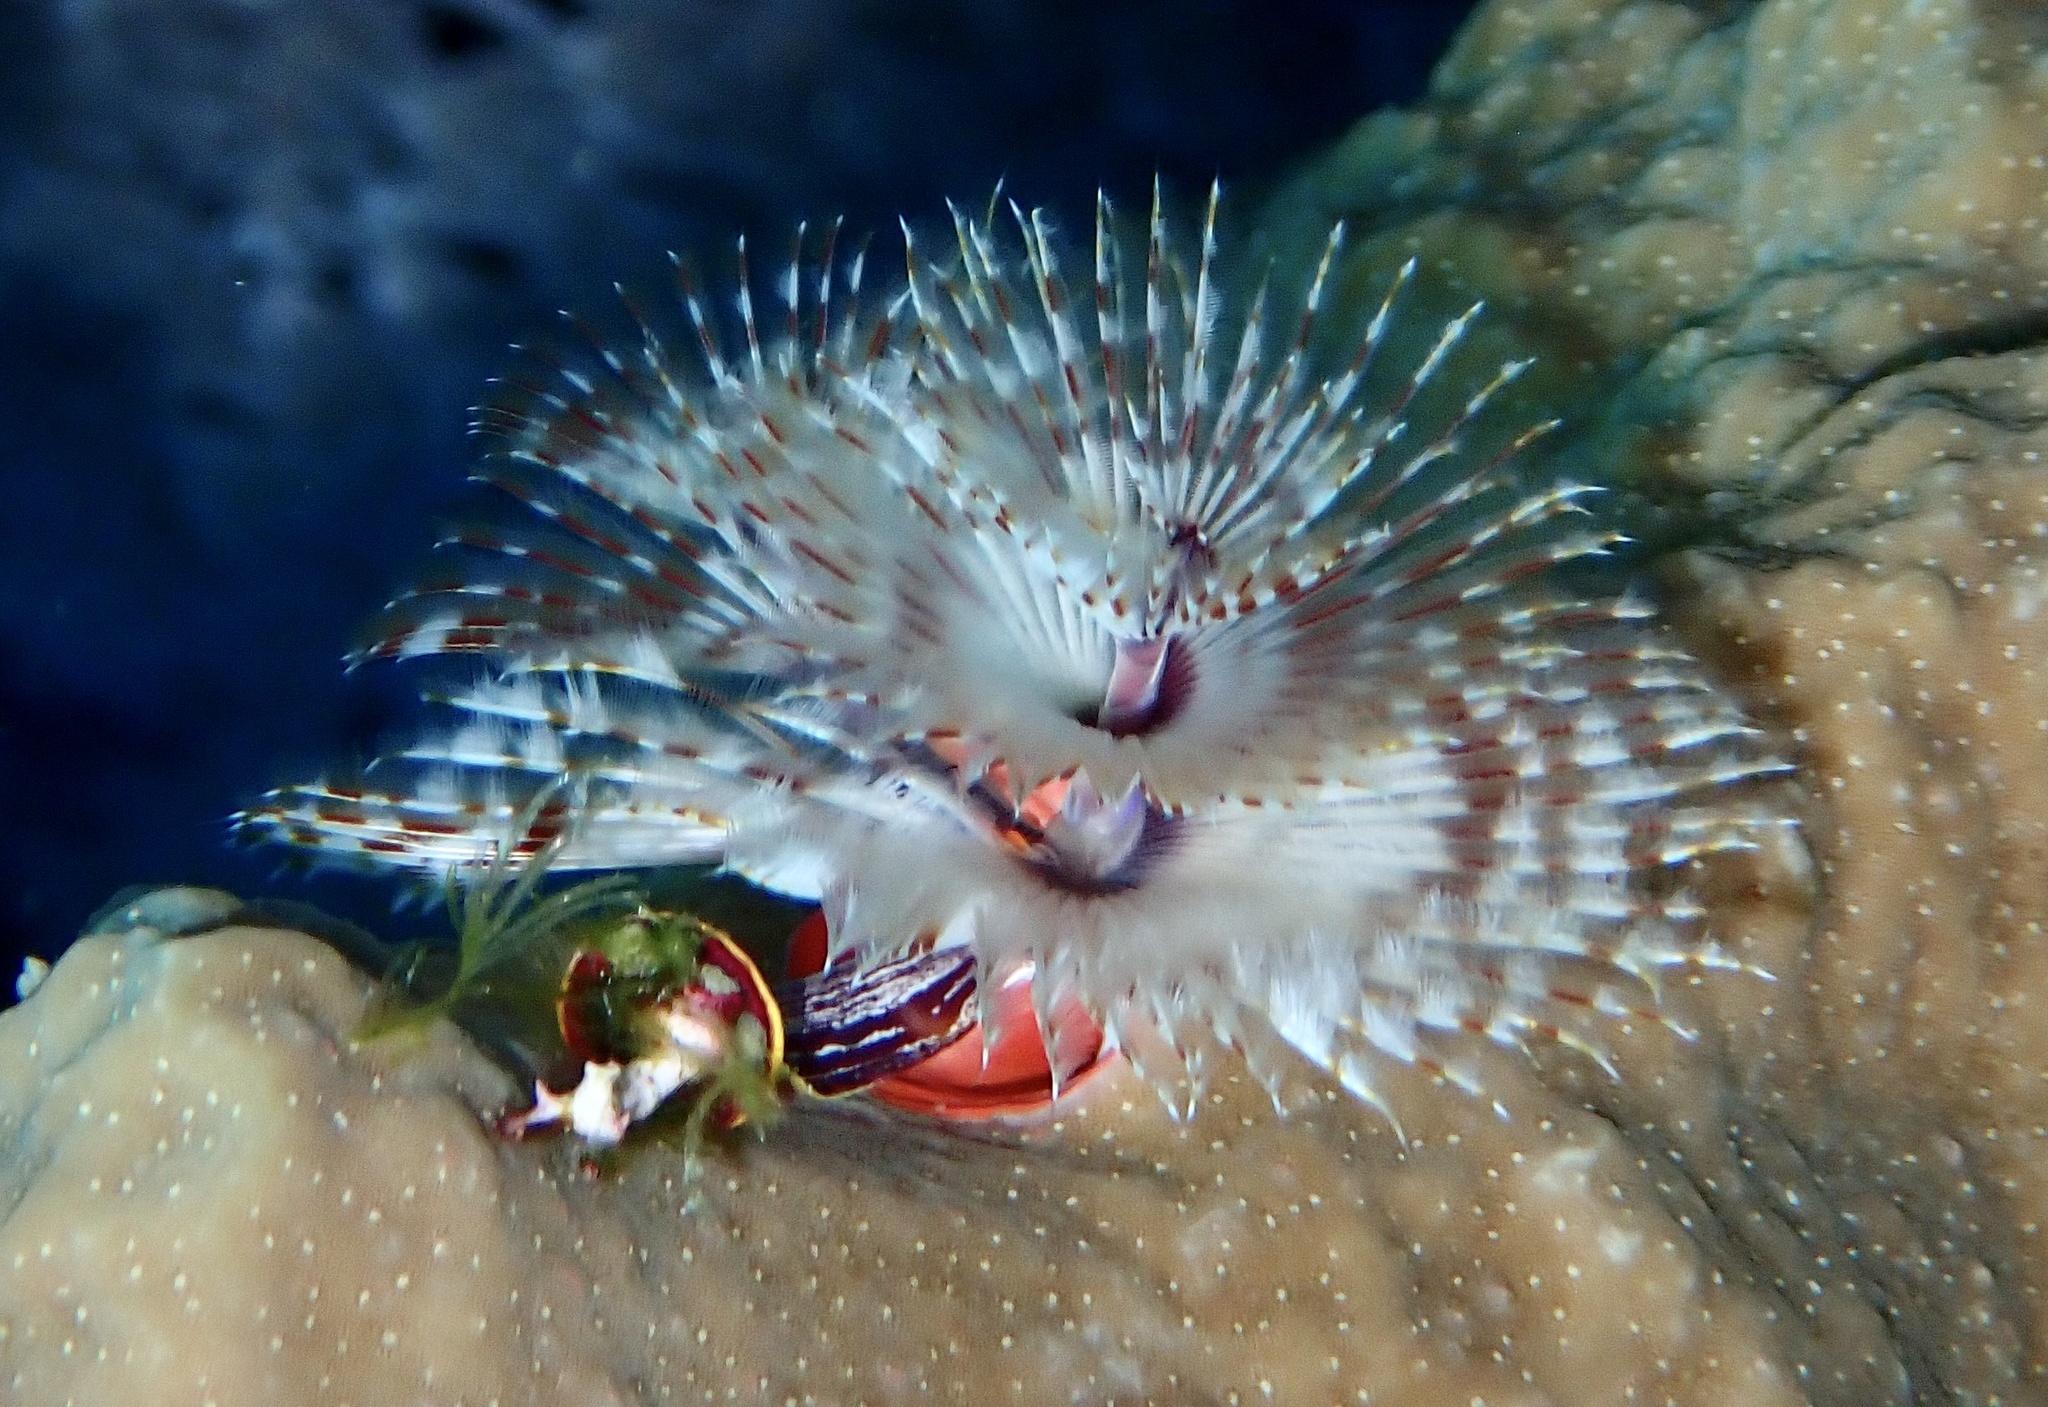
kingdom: Animalia
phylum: Annelida
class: Polychaeta
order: Sabellida
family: Serpulidae
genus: Spirobranchus
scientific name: Spirobranchus
